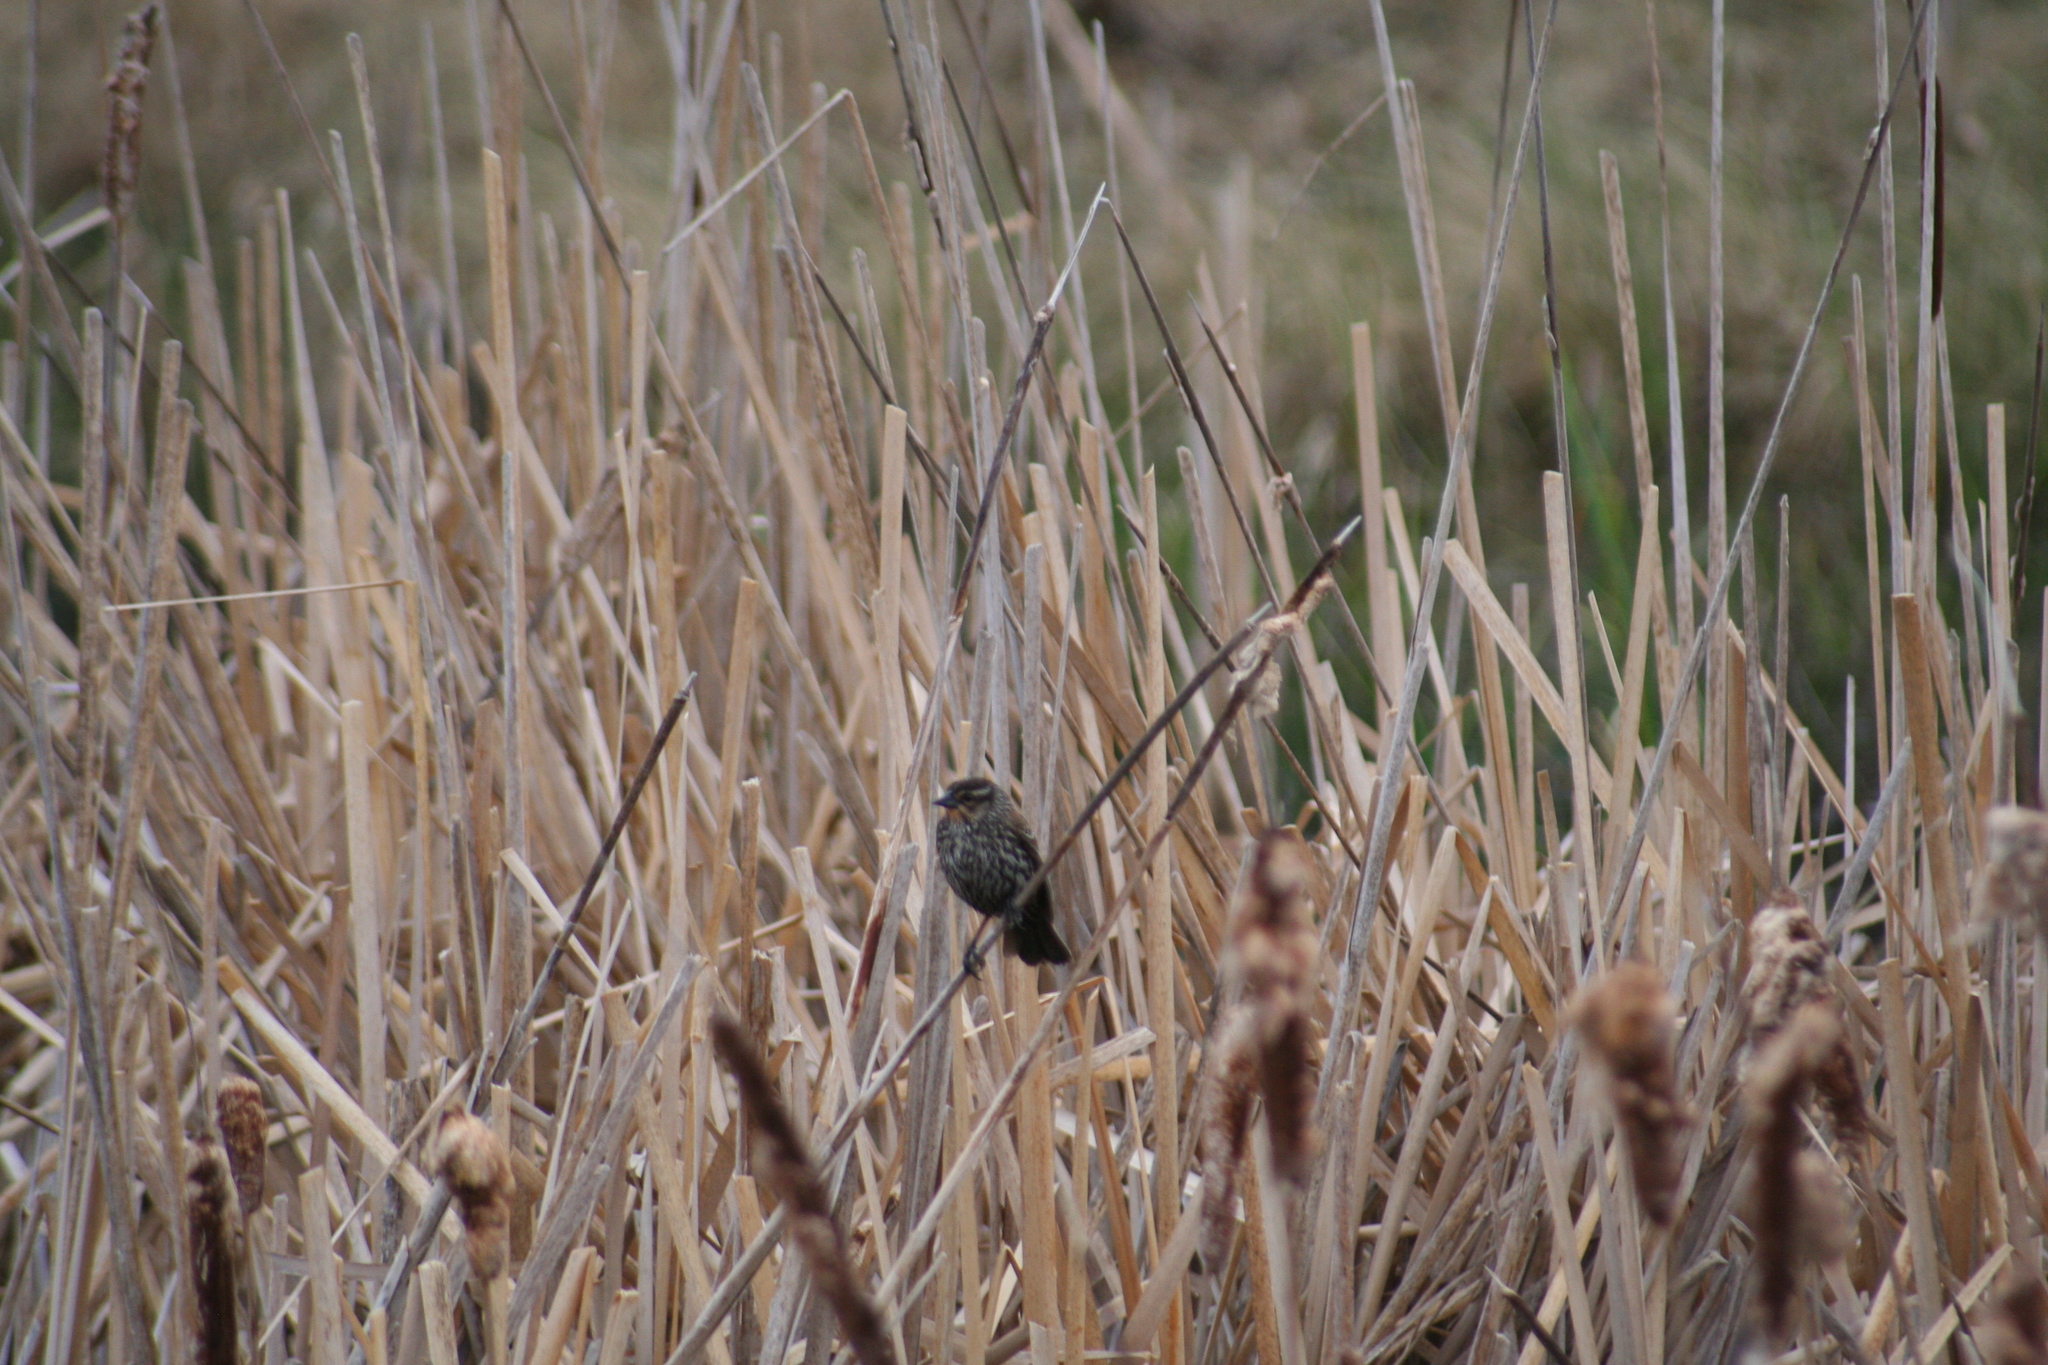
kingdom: Animalia
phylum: Chordata
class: Aves
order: Passeriformes
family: Icteridae
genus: Agelaius
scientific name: Agelaius phoeniceus
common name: Red-winged blackbird
